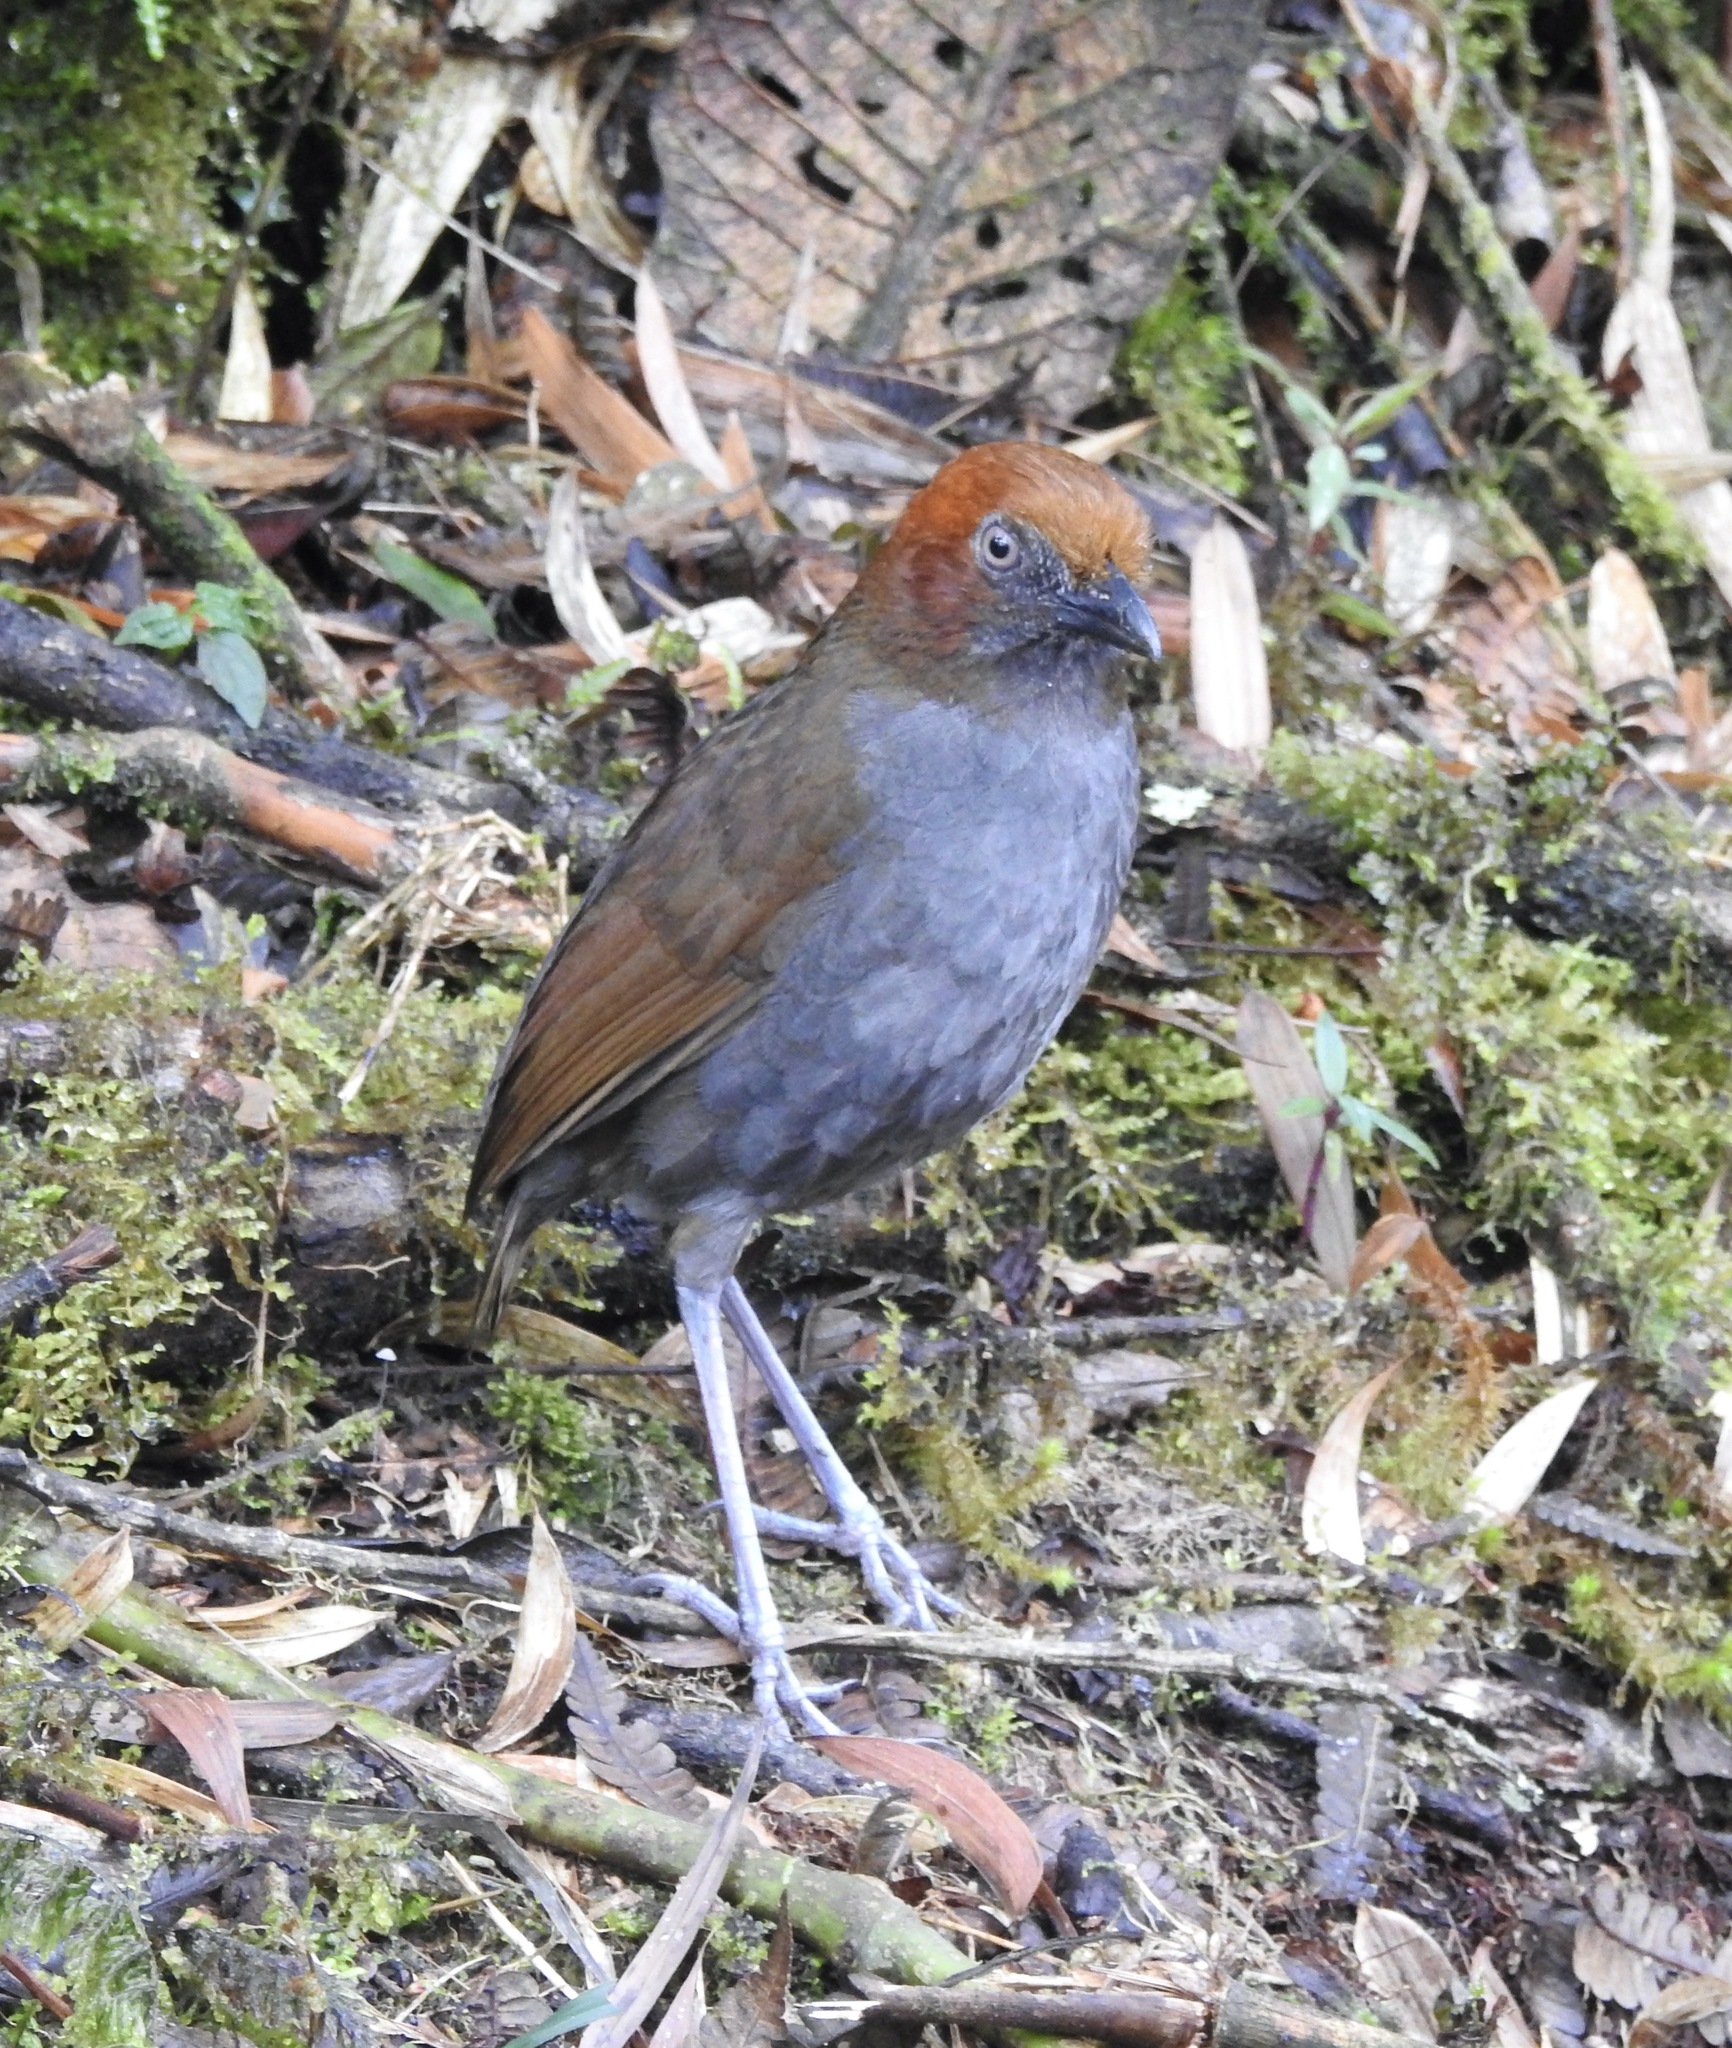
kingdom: Animalia
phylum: Chordata
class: Aves
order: Passeriformes
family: Grallariidae
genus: Grallaria
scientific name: Grallaria nuchalis
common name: Chestnut-naped antpitta
